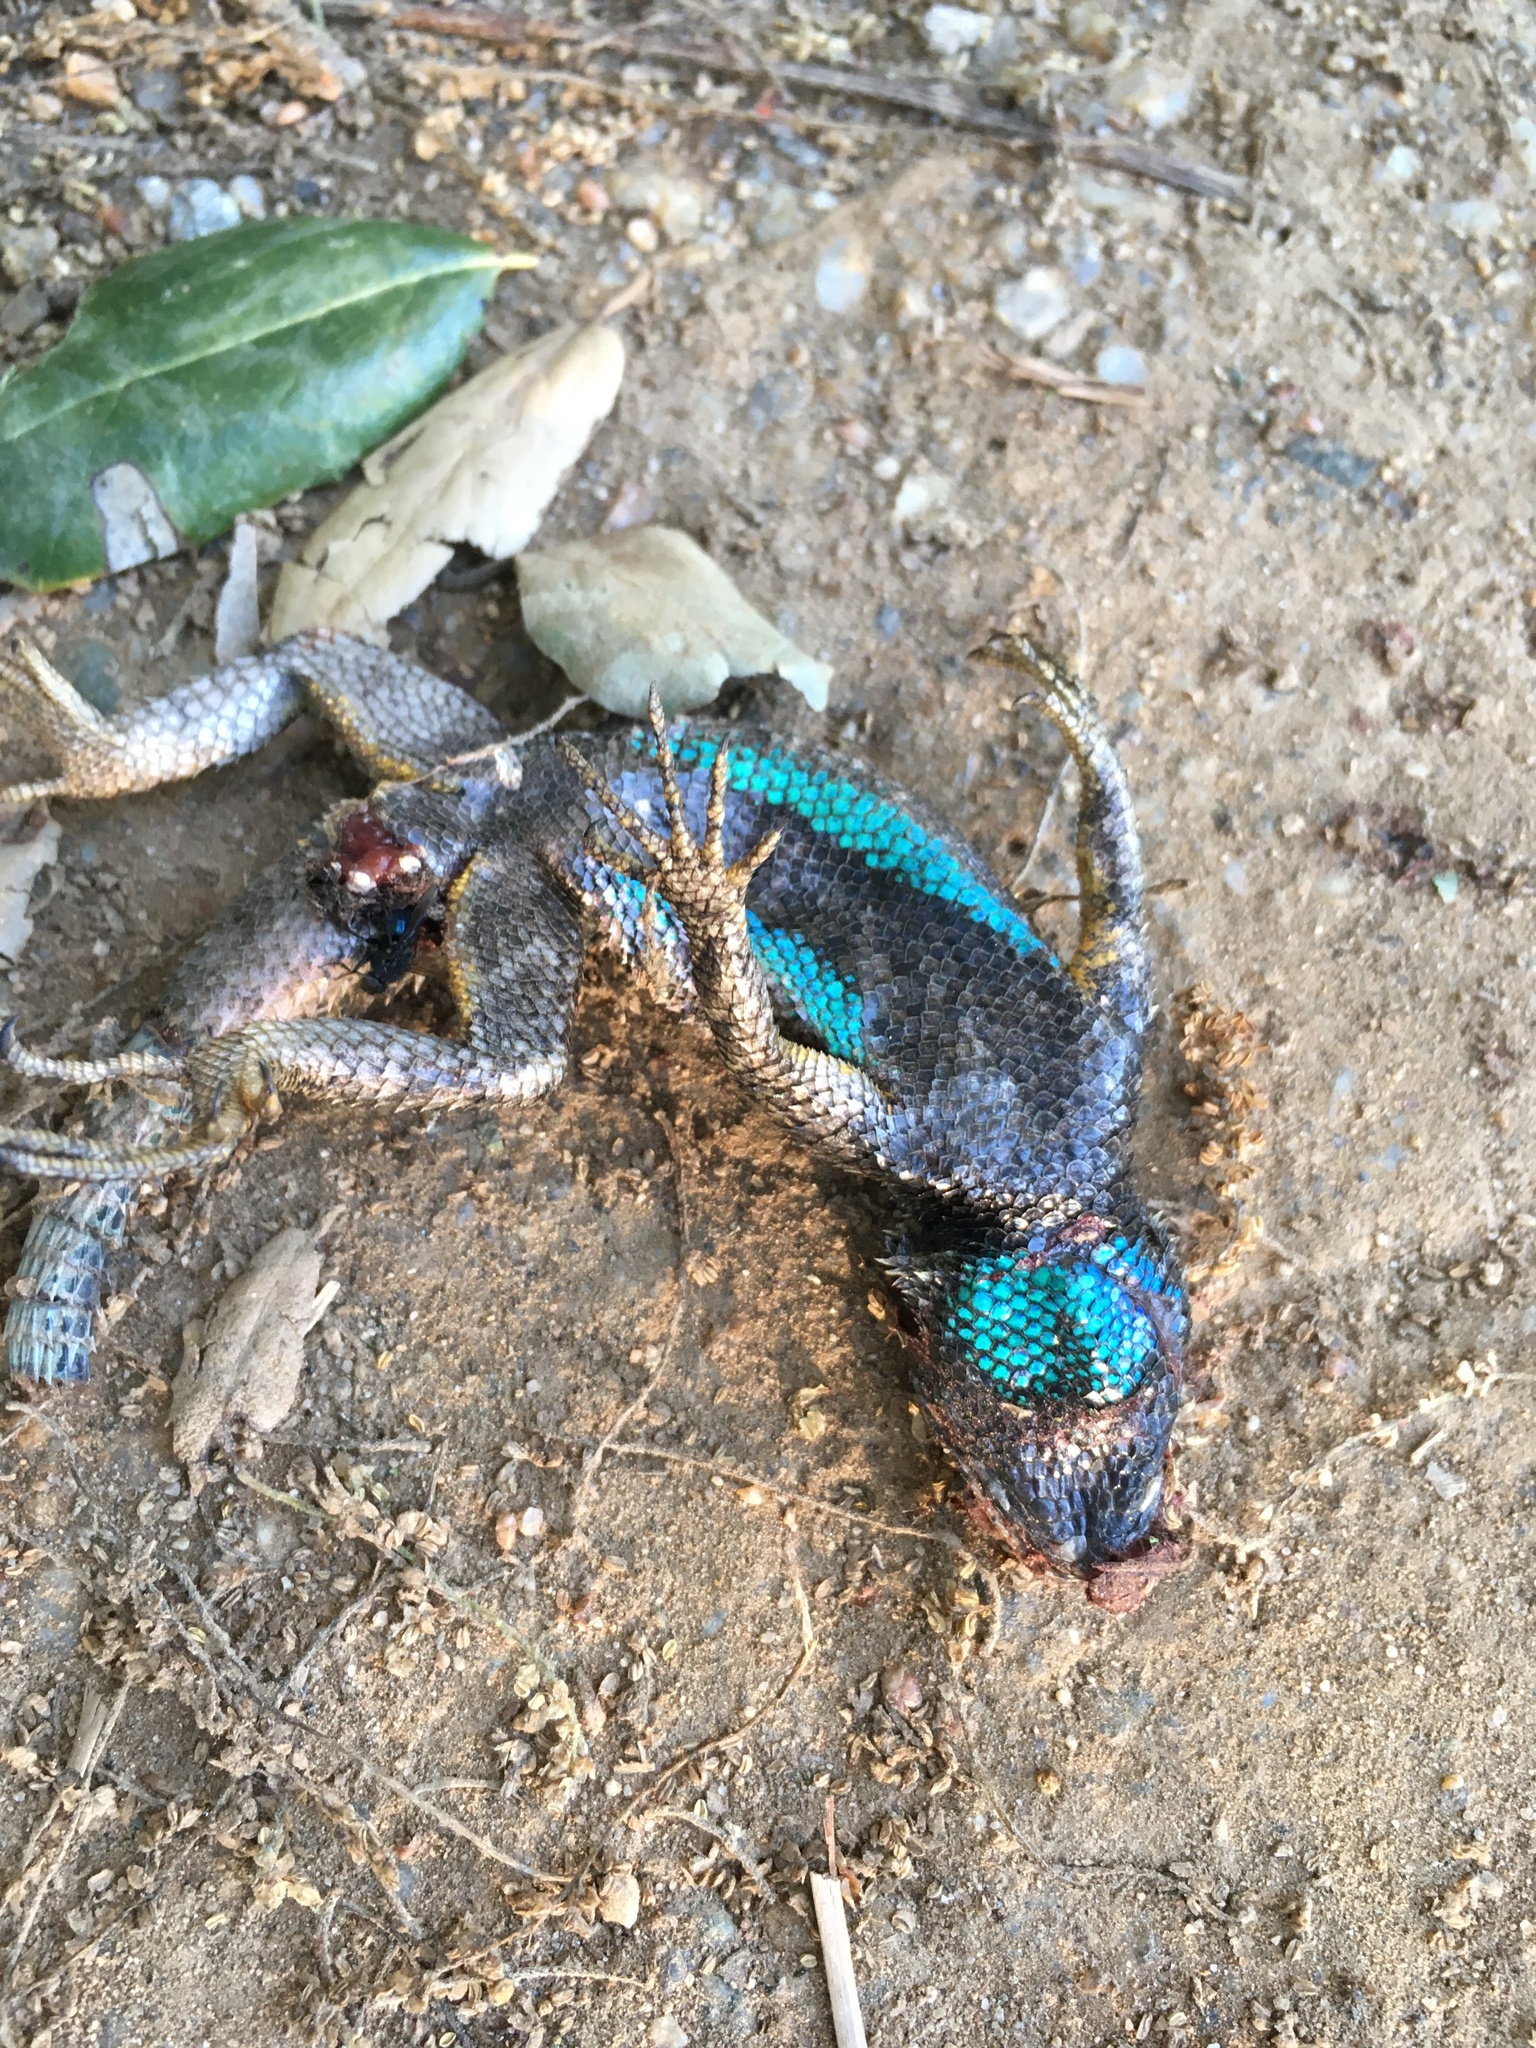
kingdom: Animalia
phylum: Chordata
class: Squamata
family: Phrynosomatidae
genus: Sceloporus
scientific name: Sceloporus occidentalis
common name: Western fence lizard
